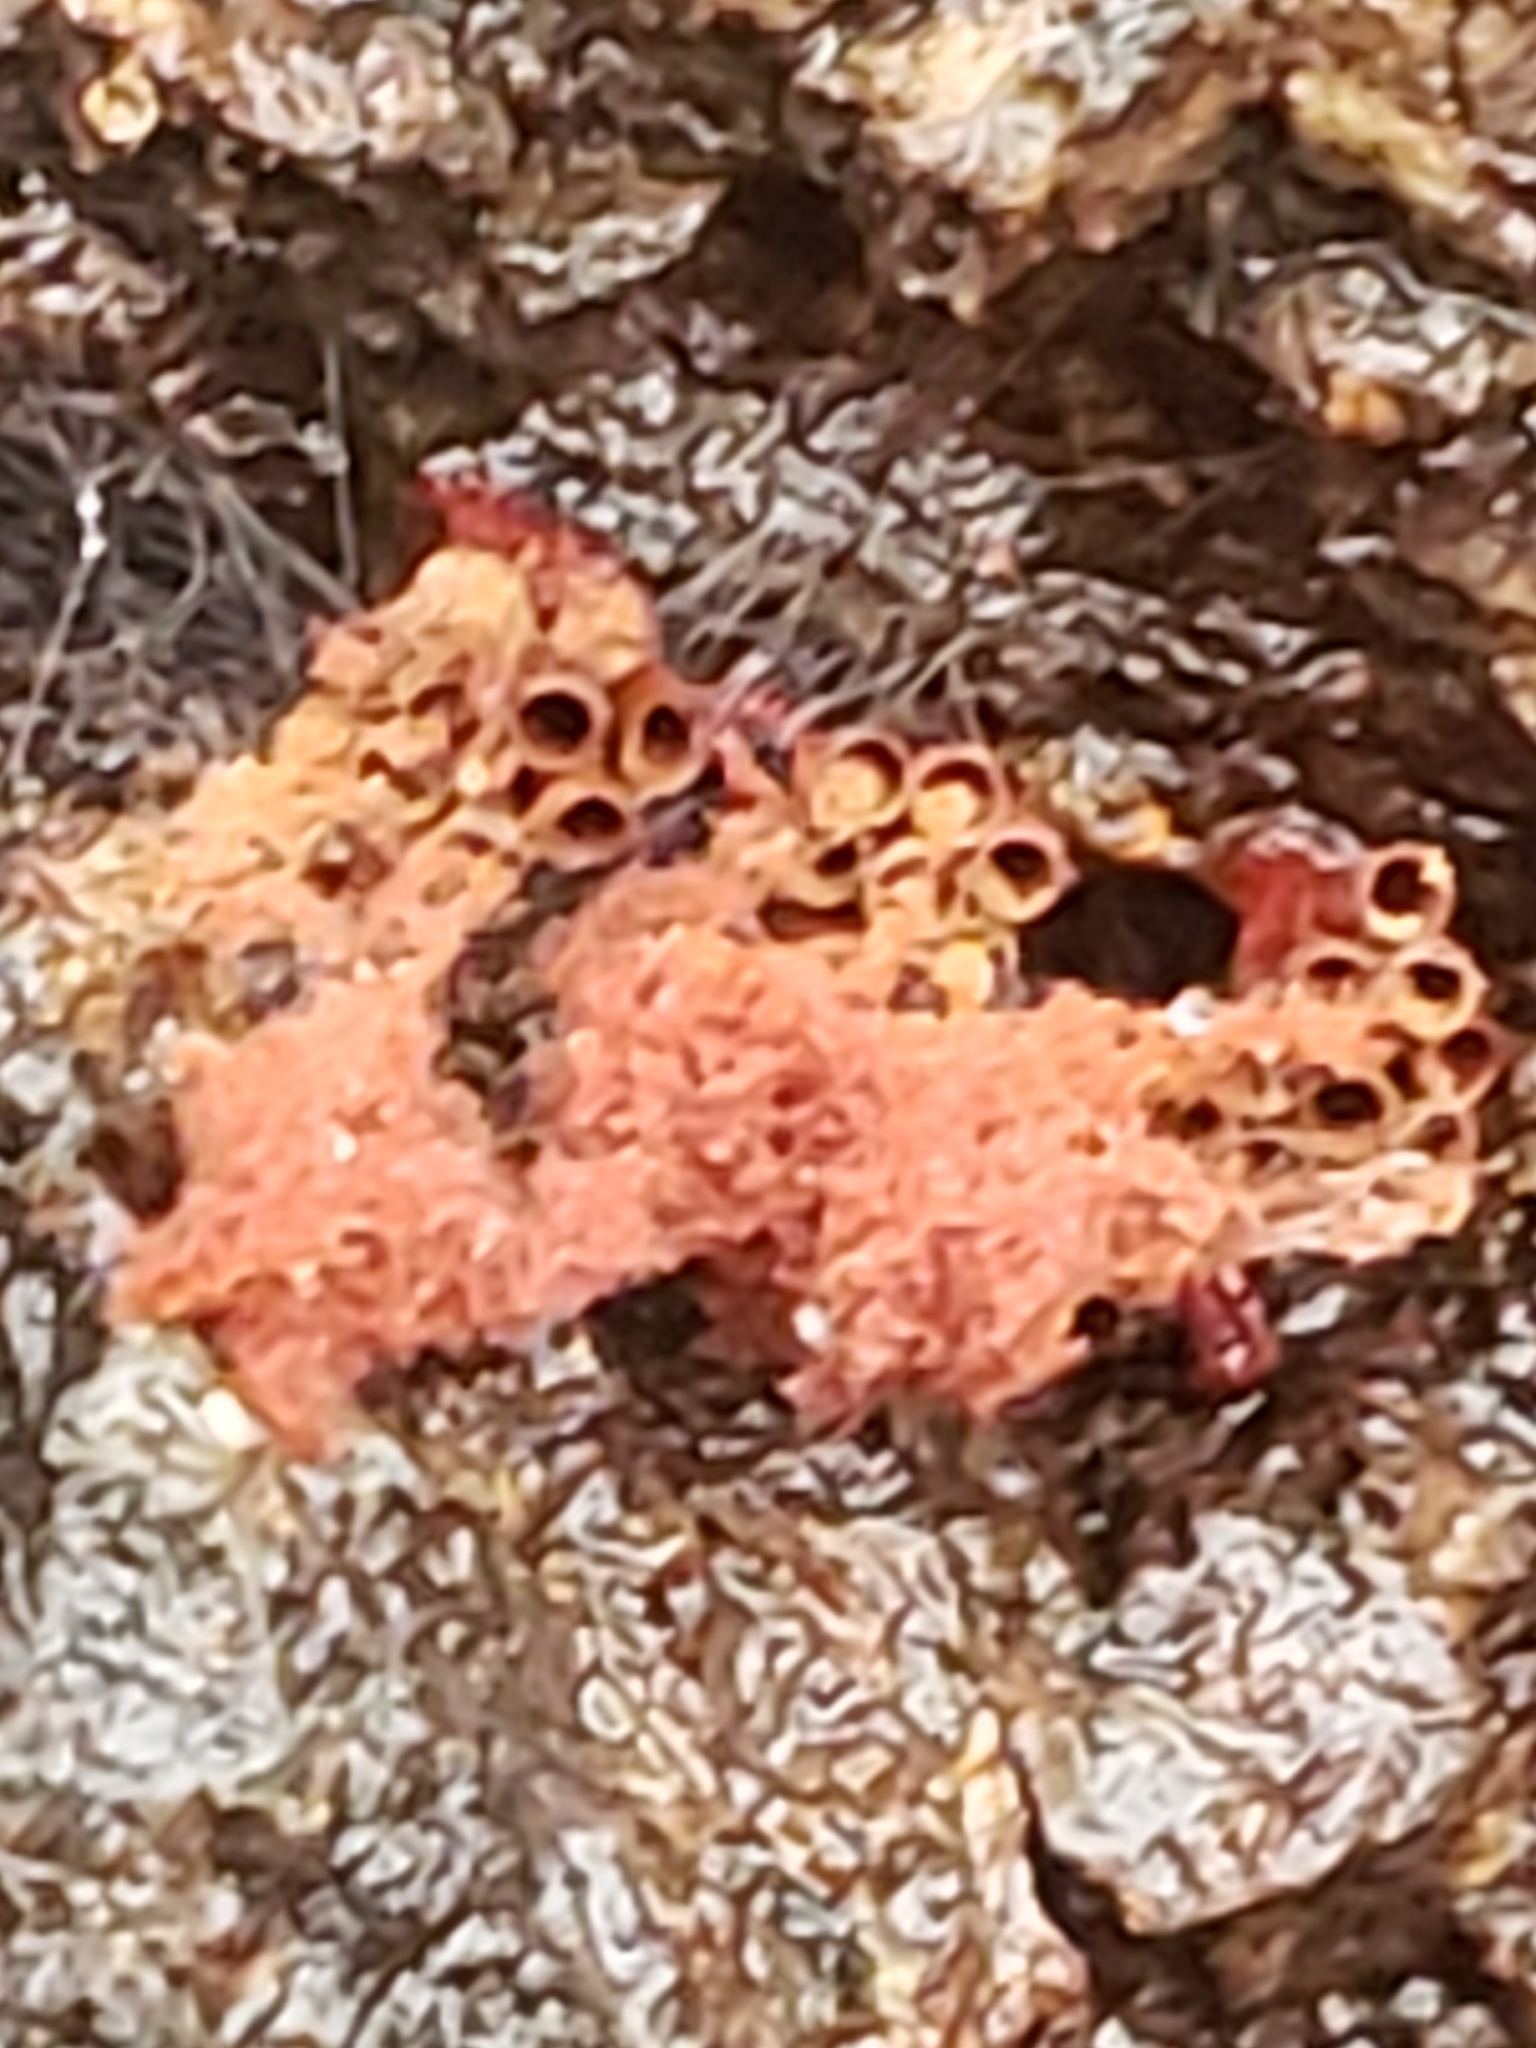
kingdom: Protozoa
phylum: Mycetozoa
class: Myxomycetes
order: Trichiales
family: Trichiaceae
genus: Metatrichia
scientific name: Metatrichia vesparia
